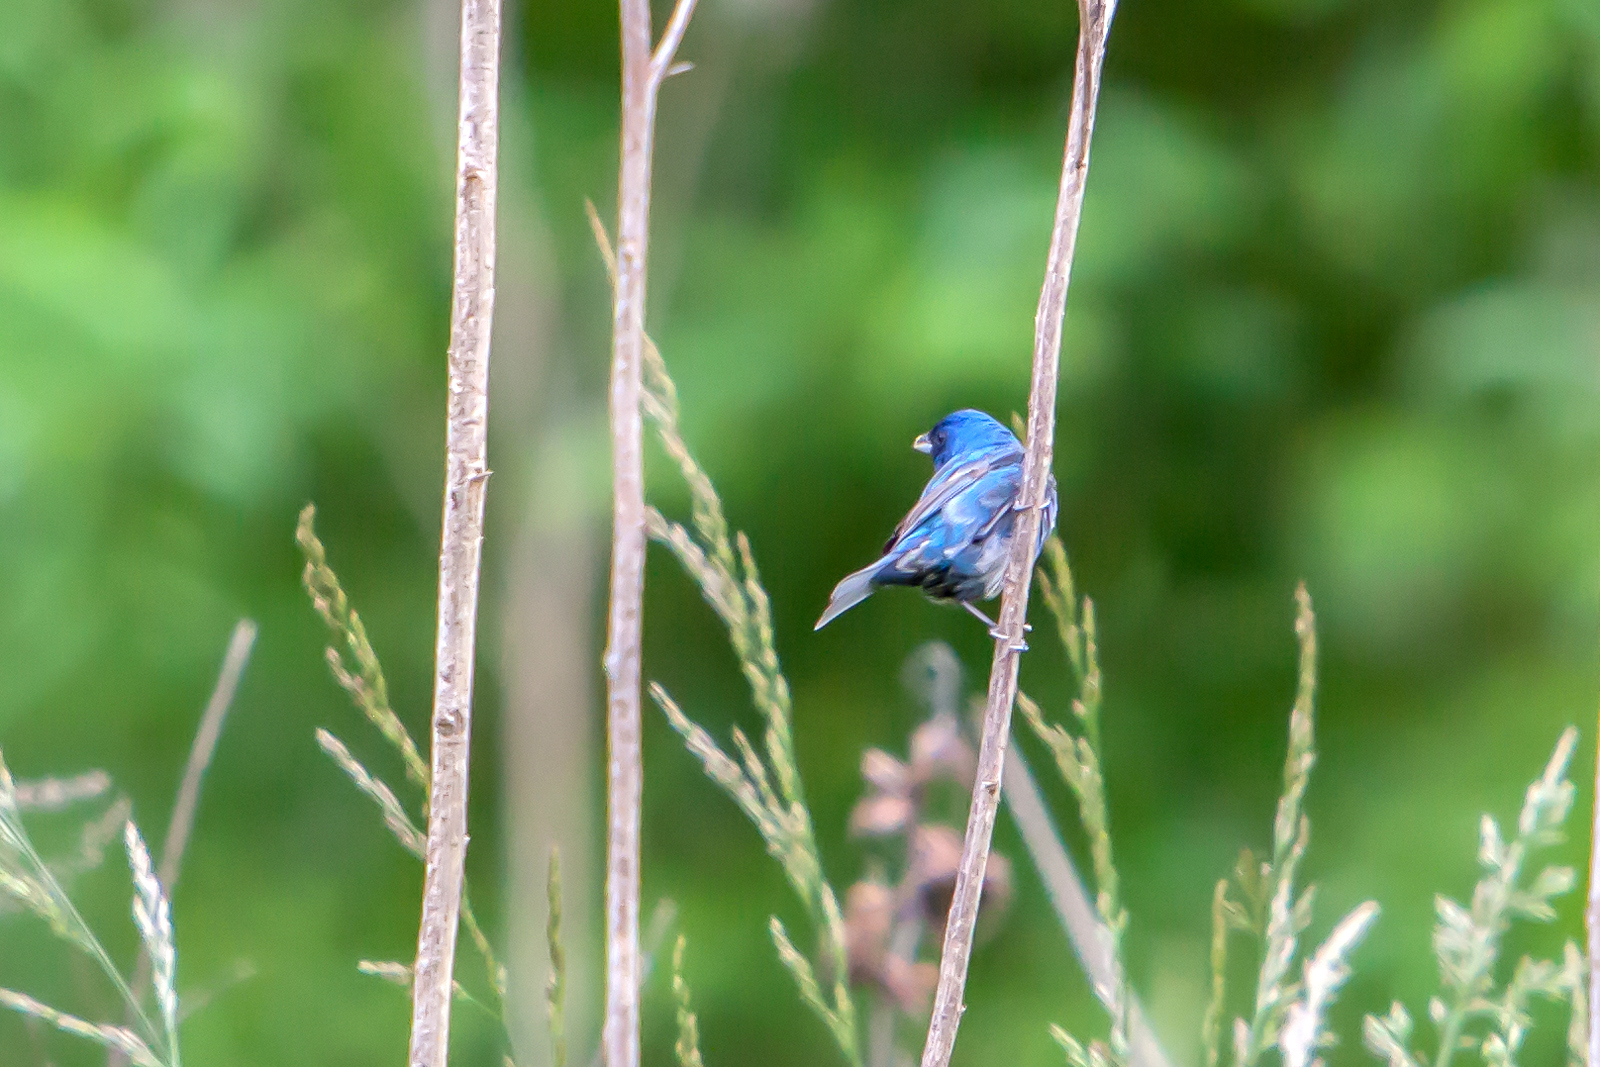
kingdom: Animalia
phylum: Chordata
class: Aves
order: Passeriformes
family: Cardinalidae
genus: Passerina
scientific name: Passerina cyanea
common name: Indigo bunting
